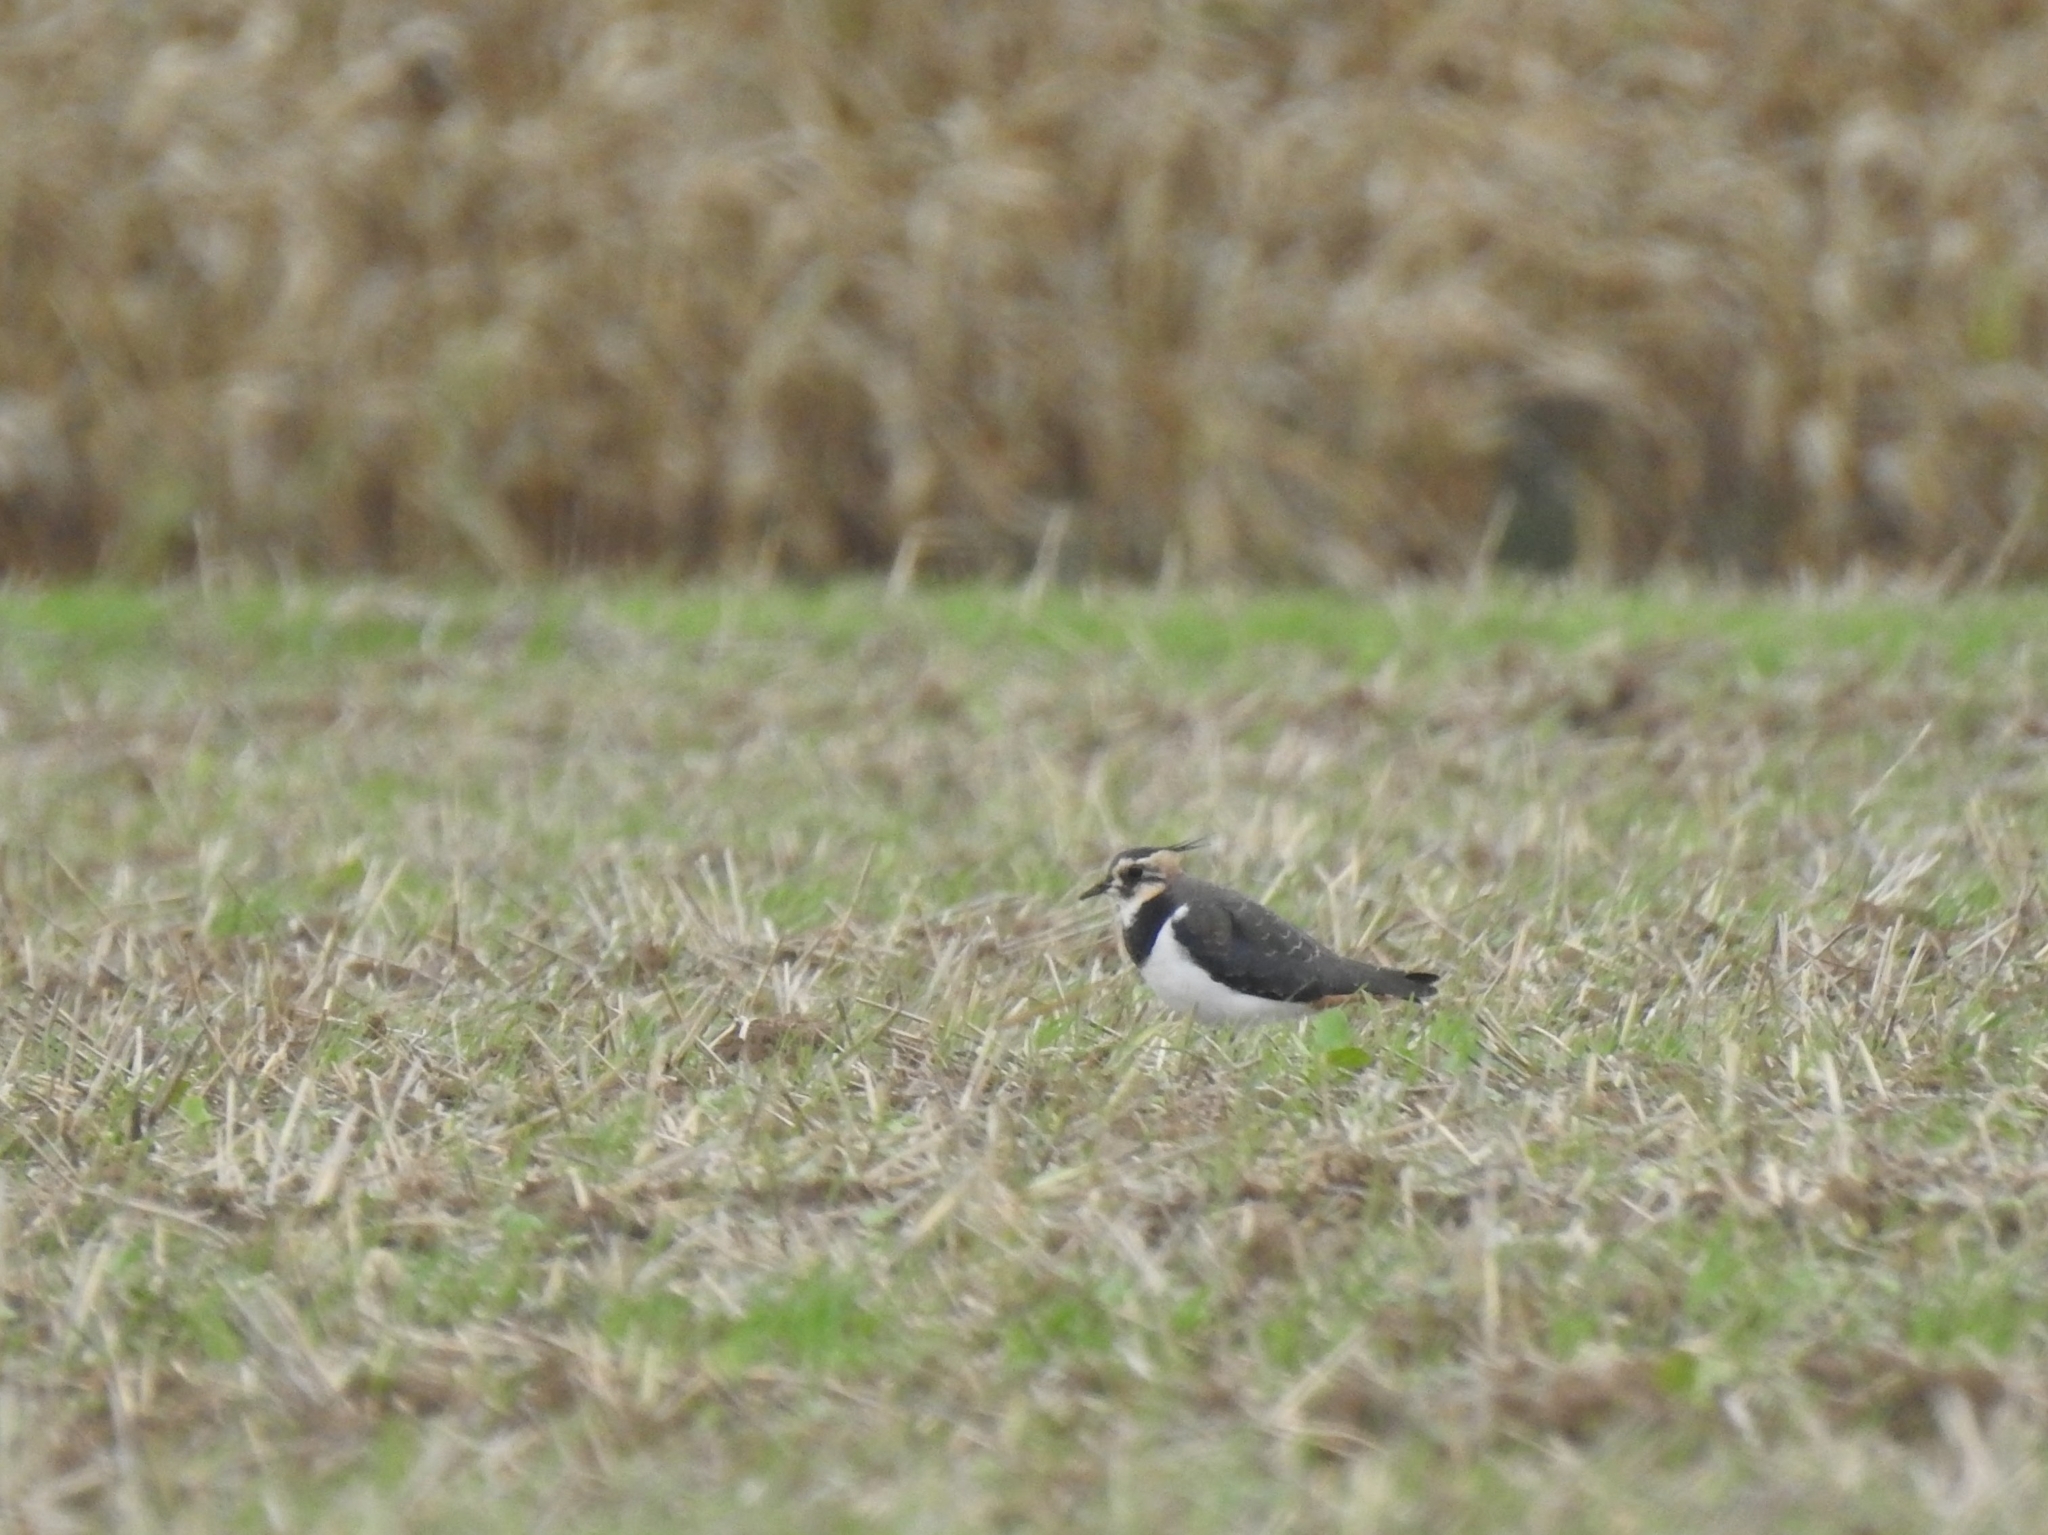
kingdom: Animalia
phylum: Chordata
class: Aves
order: Charadriiformes
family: Charadriidae
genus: Vanellus
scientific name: Vanellus vanellus
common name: Northern lapwing
